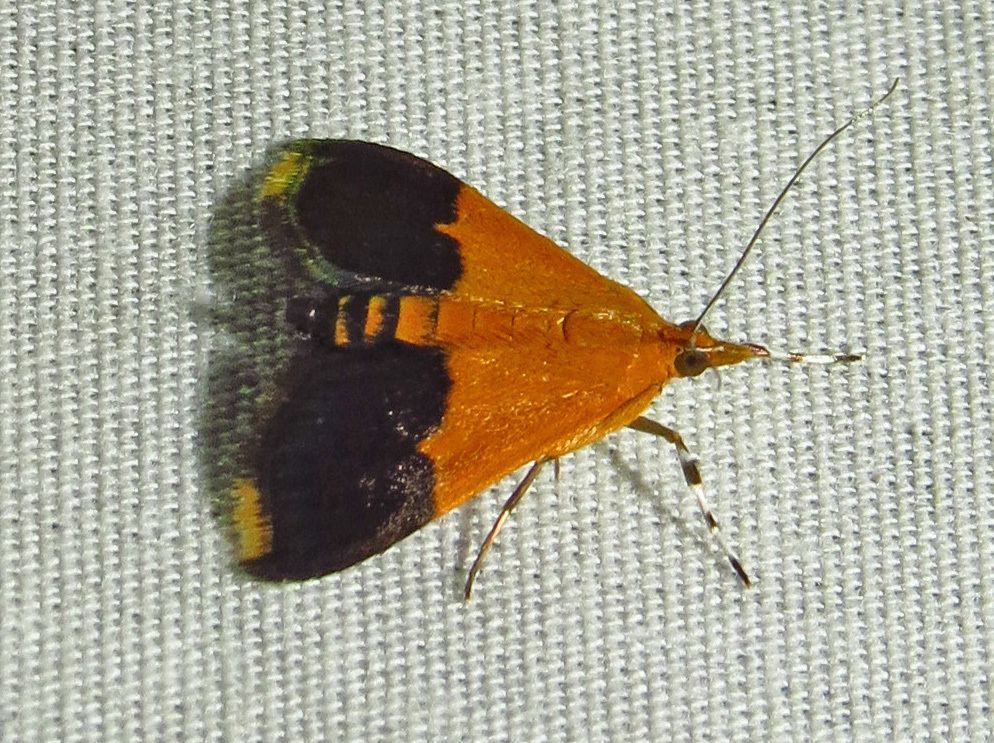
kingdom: Animalia
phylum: Arthropoda
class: Insecta
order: Lepidoptera
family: Crambidae
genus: Pyrausta
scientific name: Pyrausta augustalis
